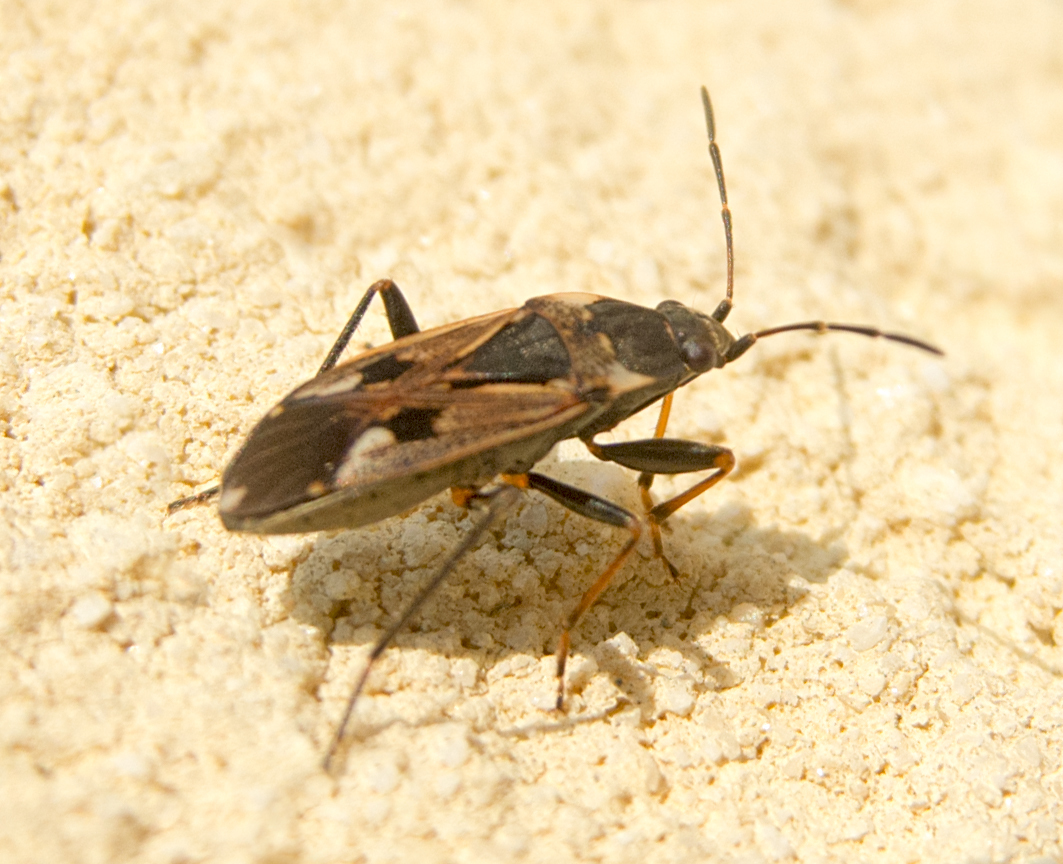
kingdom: Animalia
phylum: Arthropoda
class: Insecta
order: Hemiptera
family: Rhyparochromidae
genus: Rhyparochromus
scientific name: Rhyparochromus vulgaris
